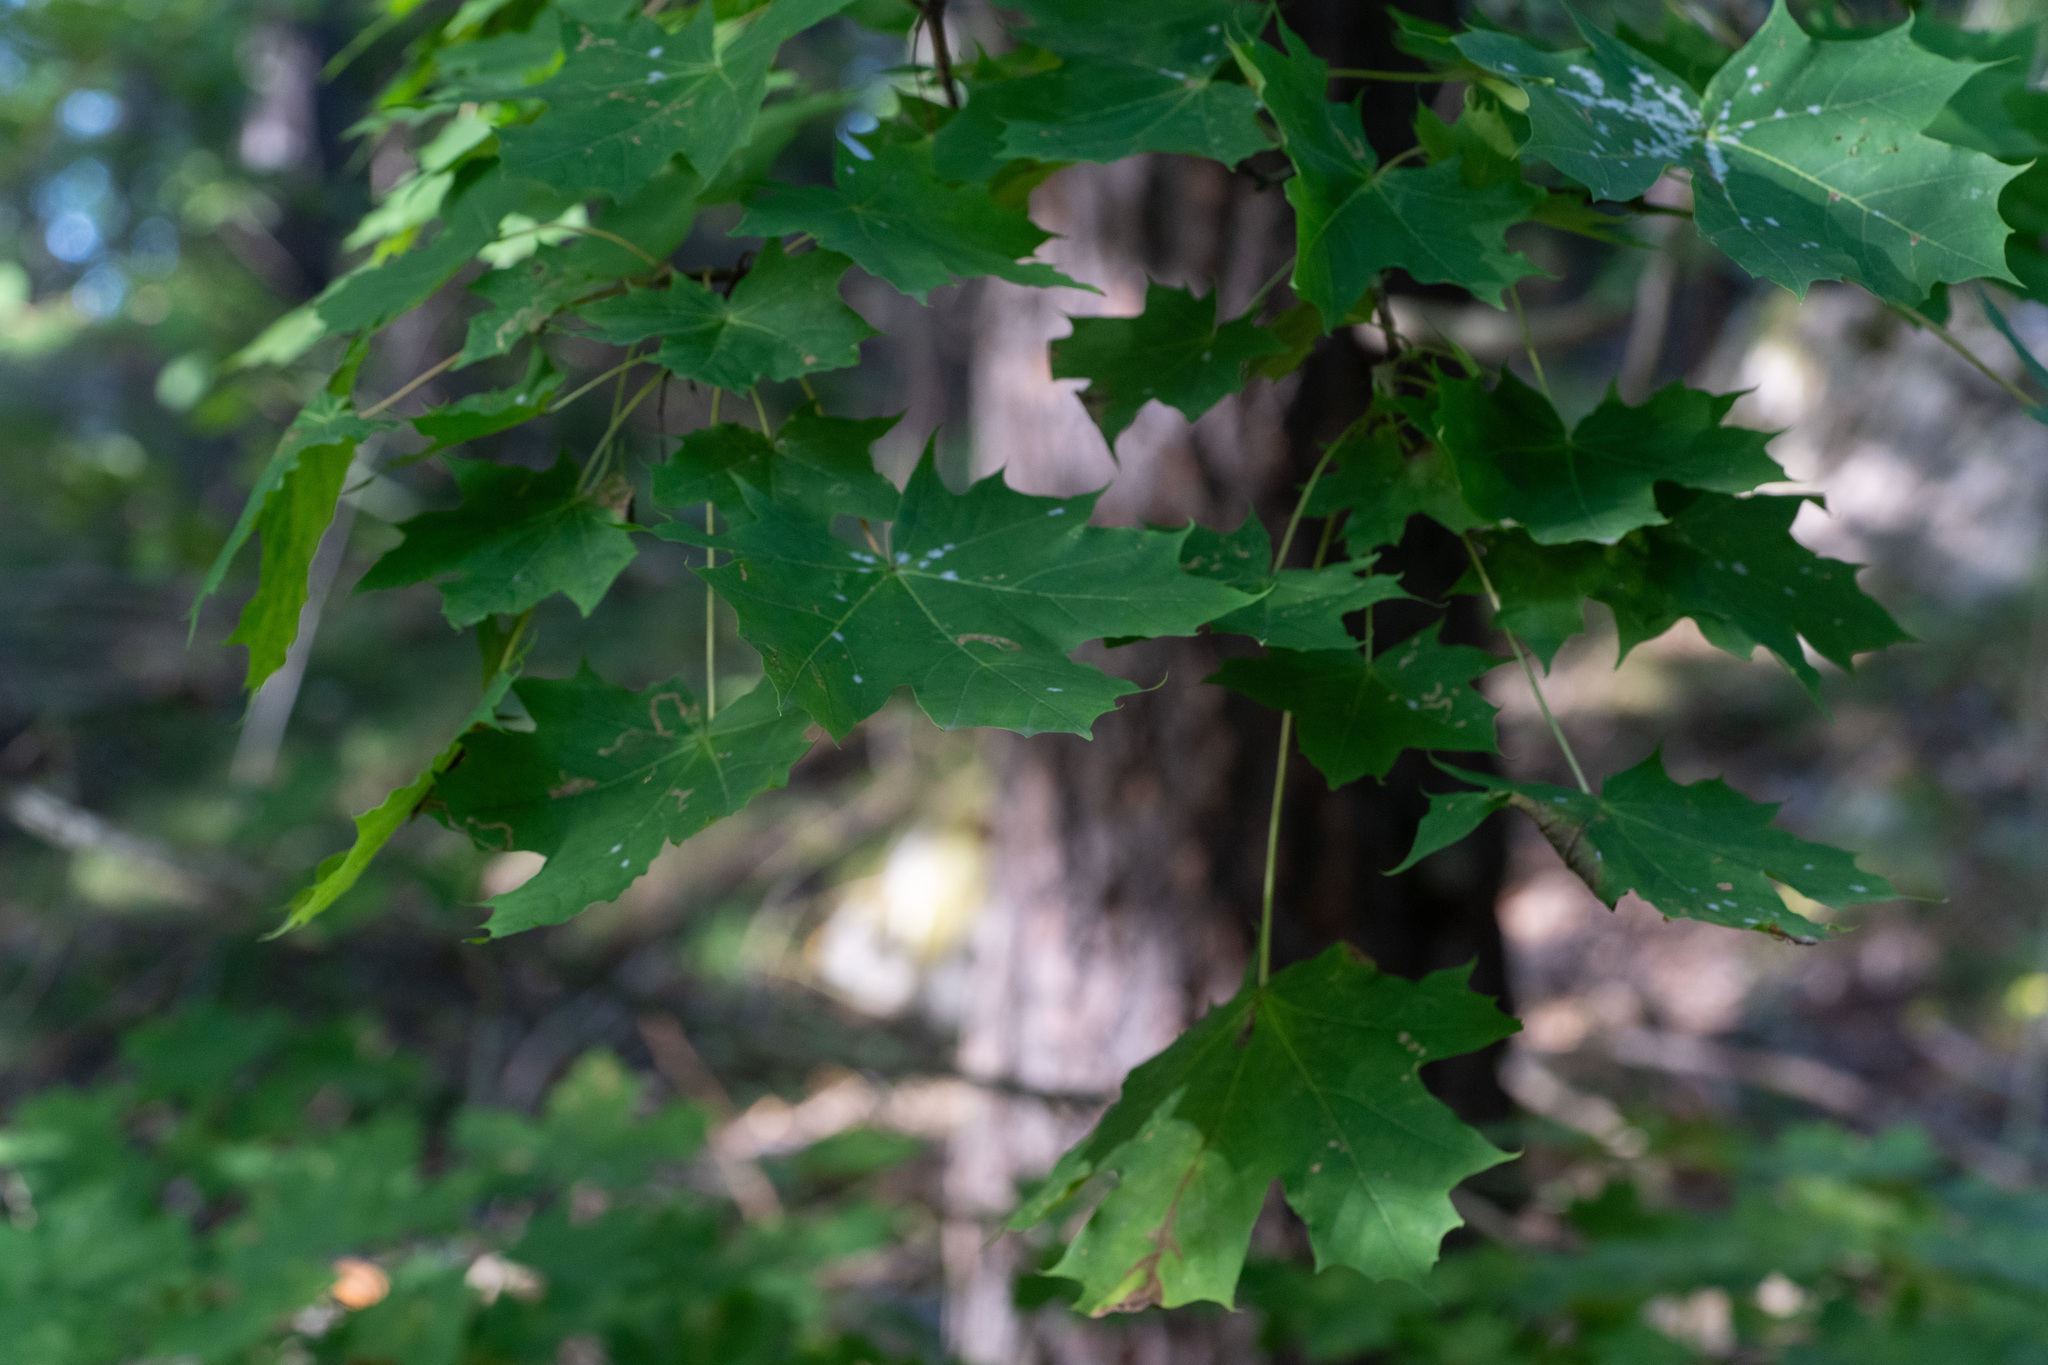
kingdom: Plantae
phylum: Tracheophyta
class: Magnoliopsida
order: Sapindales
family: Sapindaceae
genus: Acer
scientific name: Acer platanoides
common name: Norway maple
